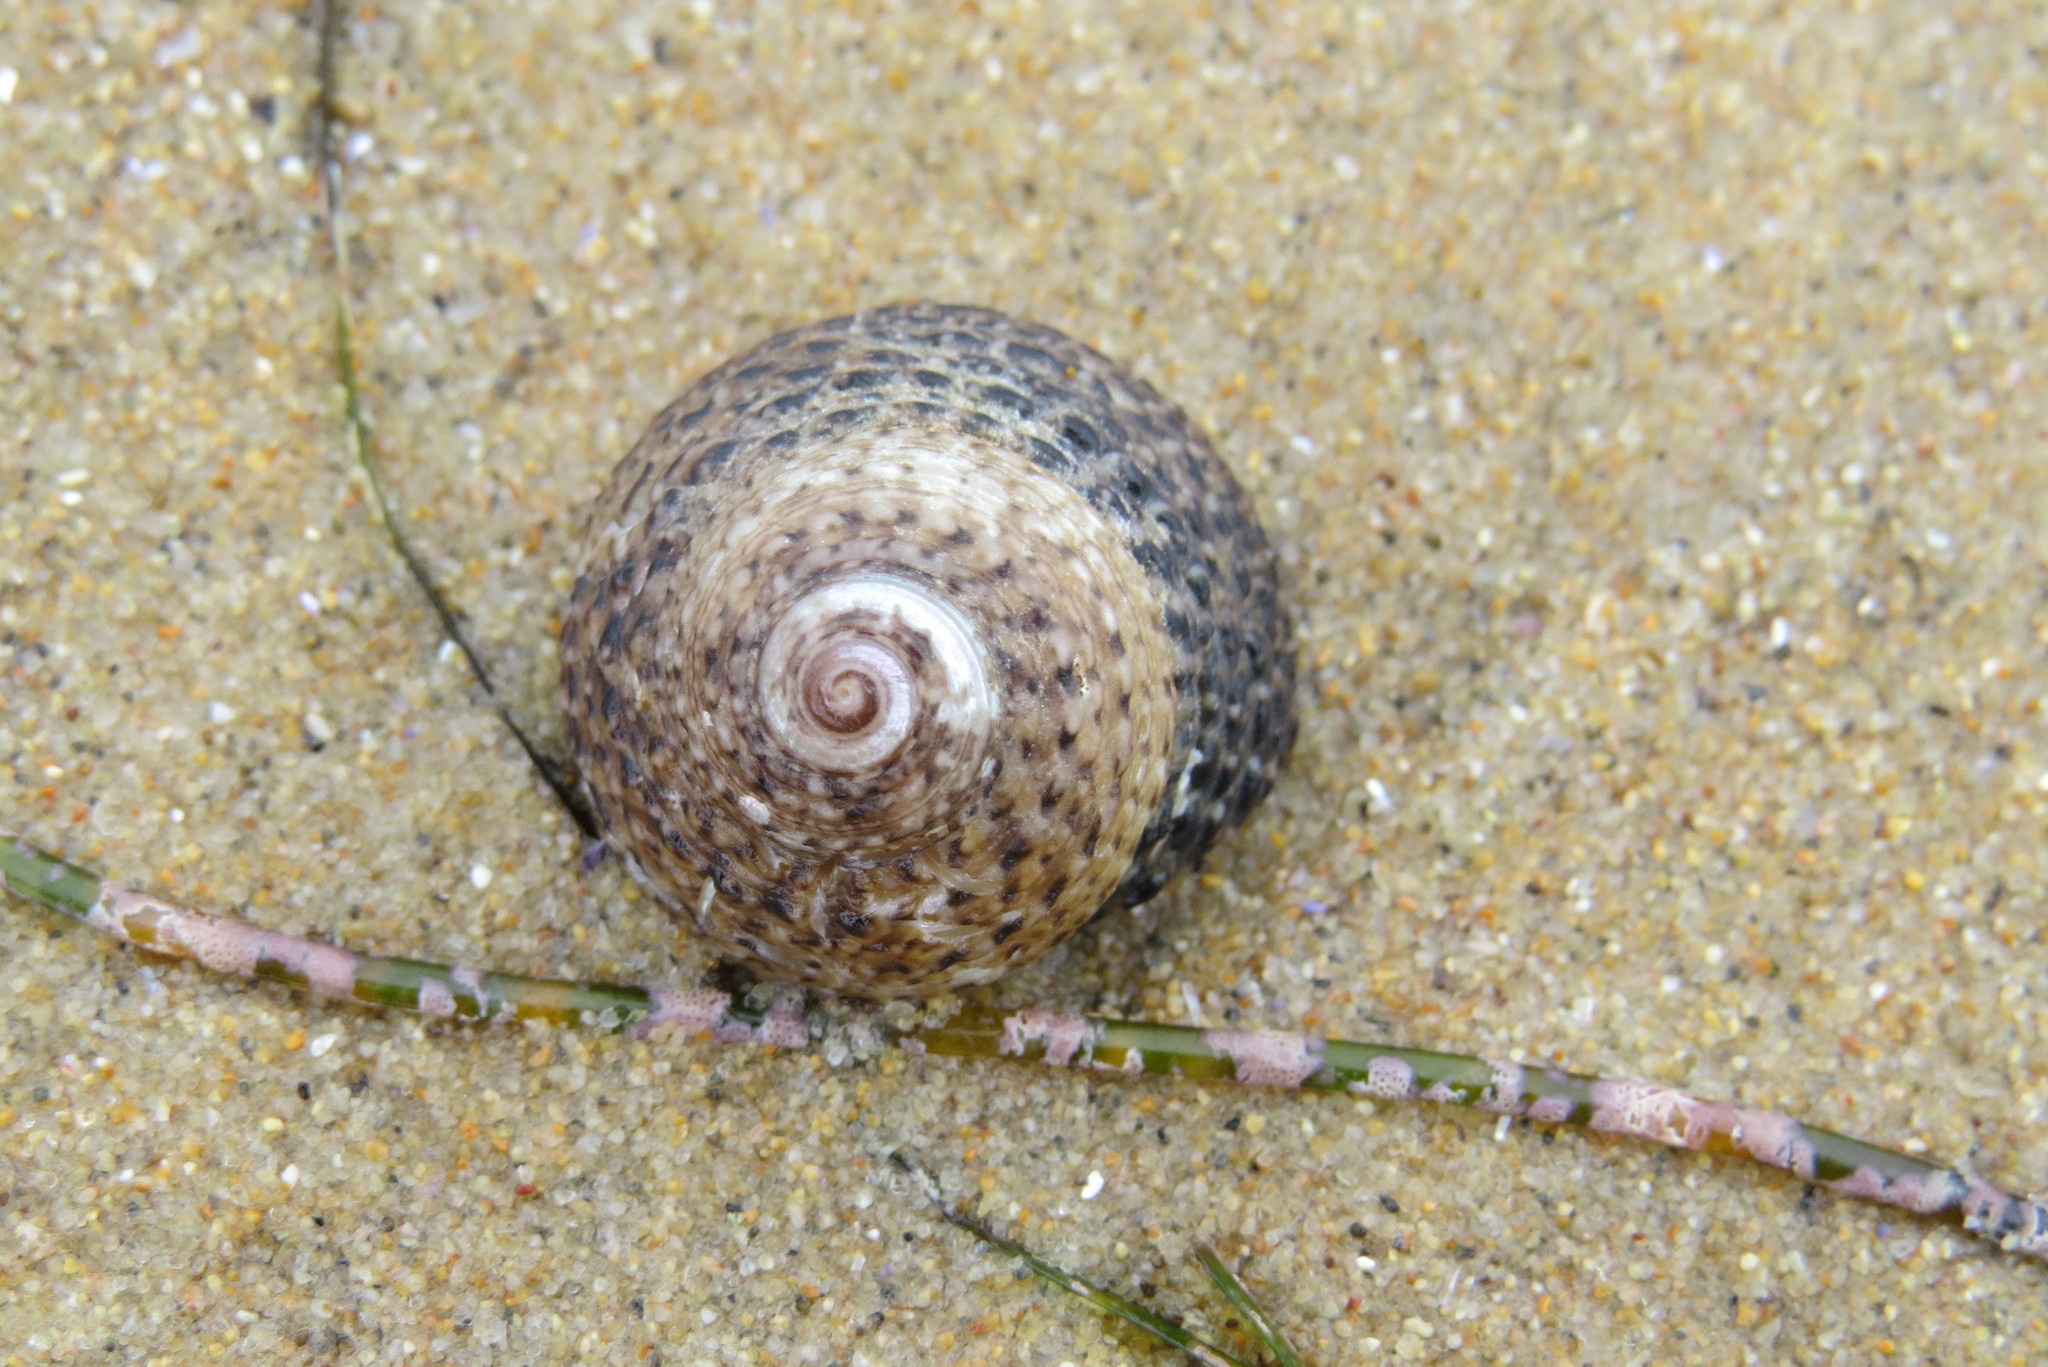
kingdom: Animalia
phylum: Mollusca
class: Gastropoda
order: Trochida
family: Tegulidae
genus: Tegula
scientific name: Tegula eiseni
